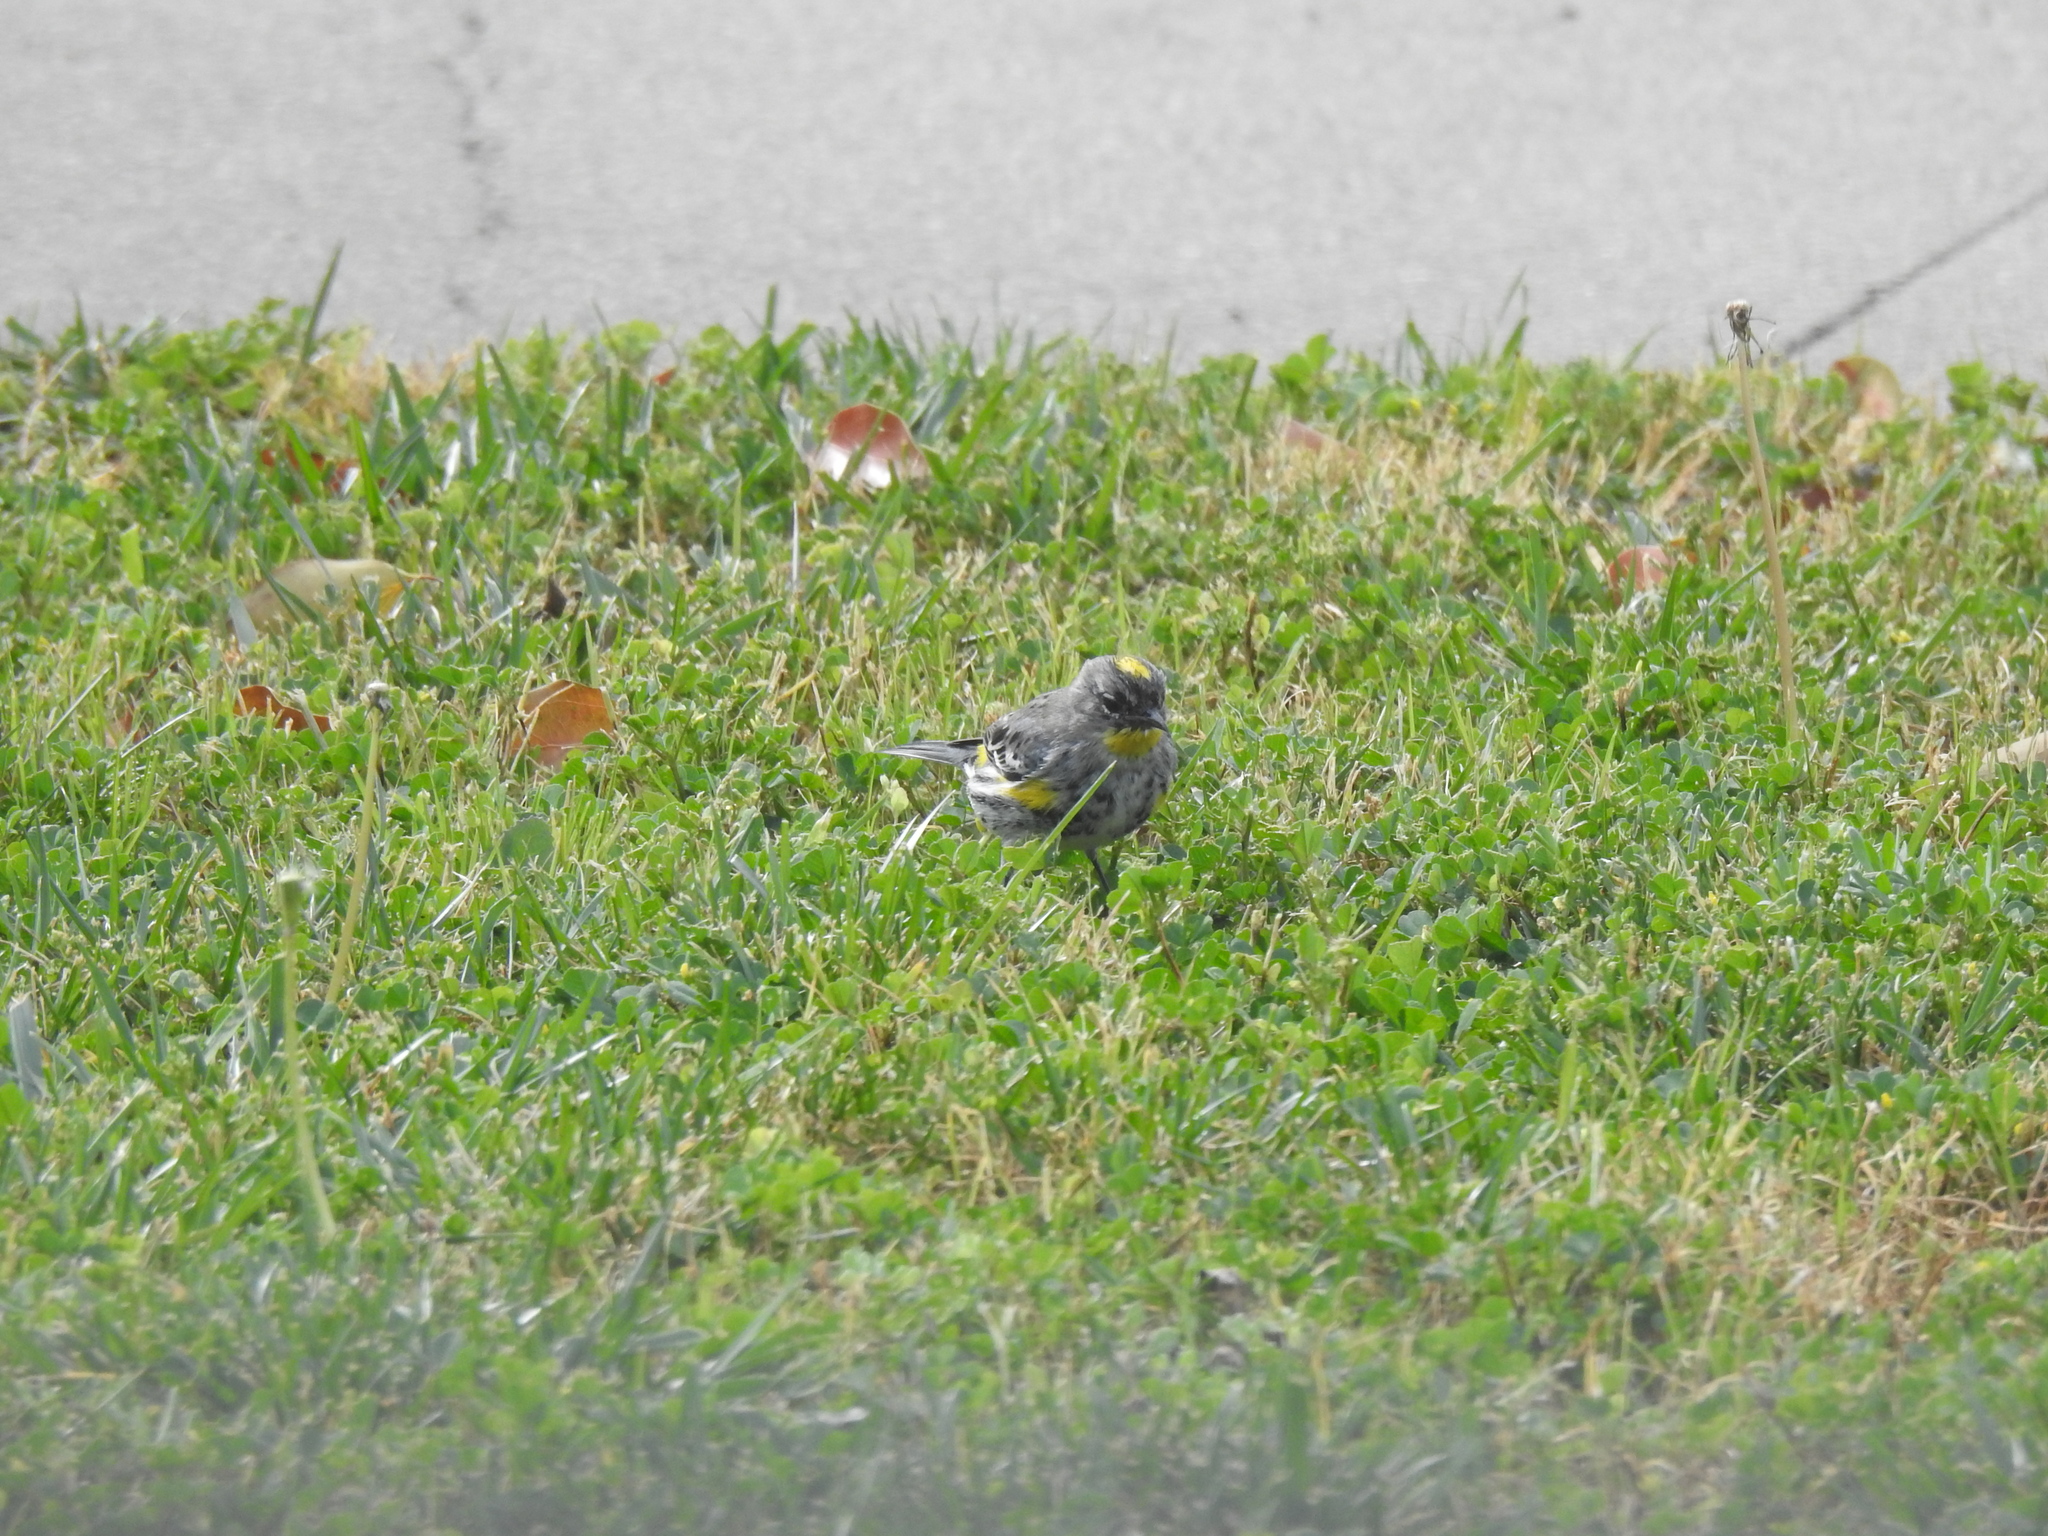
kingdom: Animalia
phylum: Chordata
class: Aves
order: Passeriformes
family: Parulidae
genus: Setophaga
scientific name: Setophaga coronata
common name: Myrtle warbler
